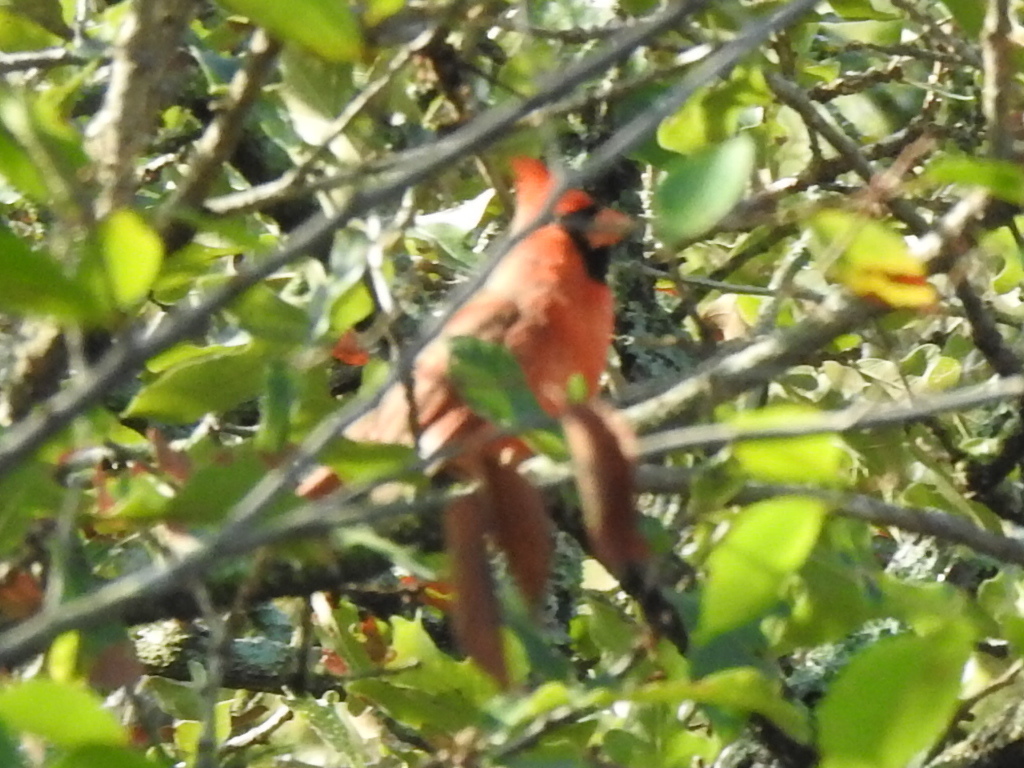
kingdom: Animalia
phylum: Chordata
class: Aves
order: Passeriformes
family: Cardinalidae
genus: Cardinalis
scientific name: Cardinalis cardinalis
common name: Northern cardinal
